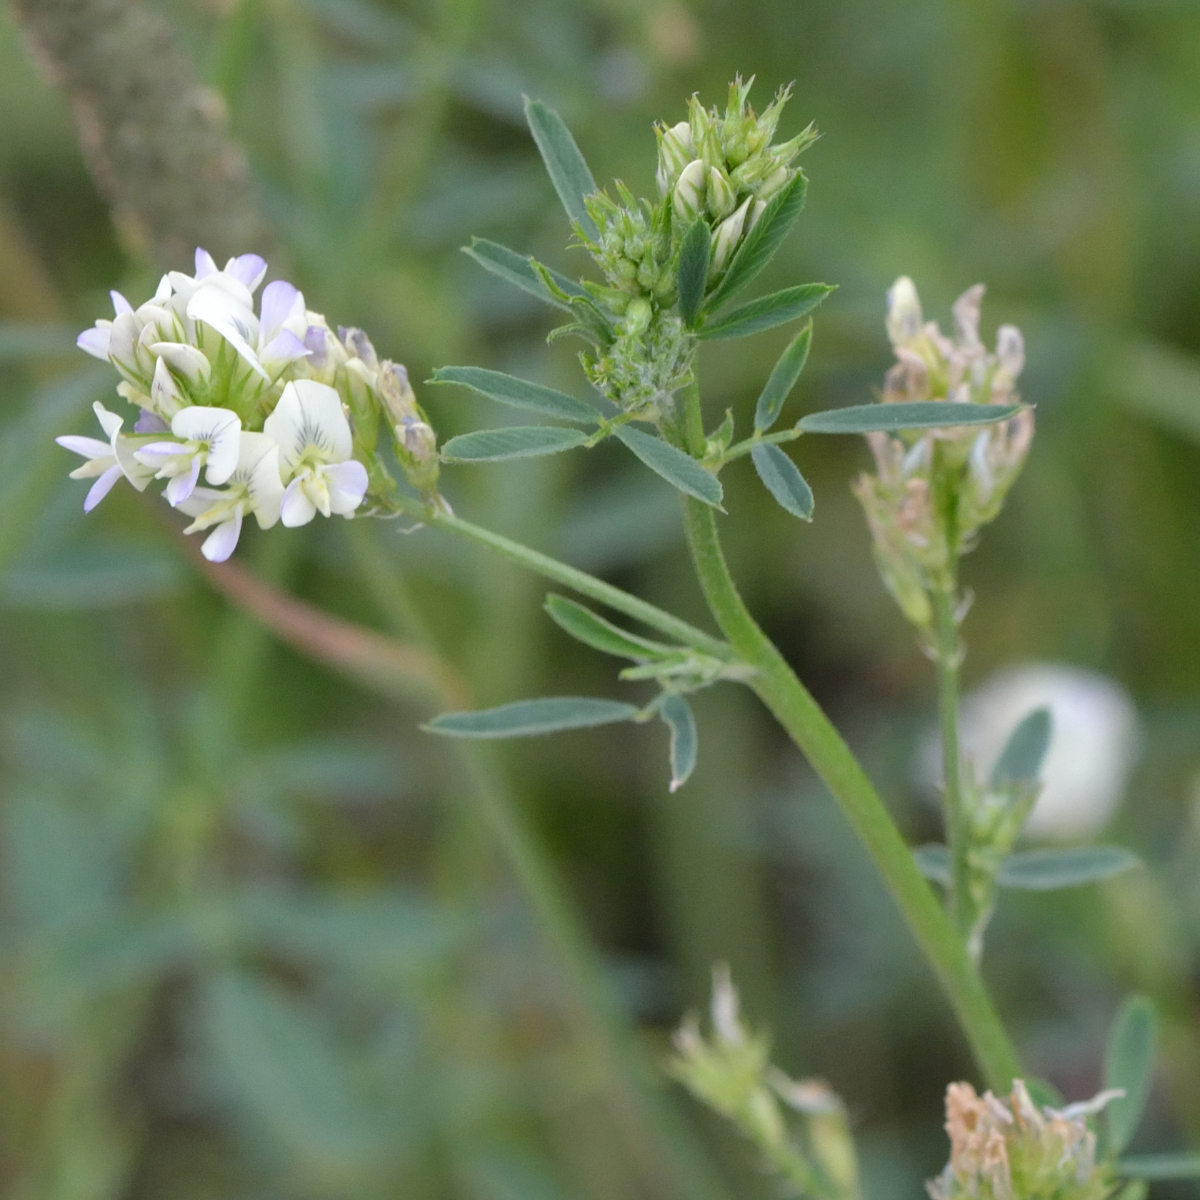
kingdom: Plantae
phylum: Tracheophyta
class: Magnoliopsida
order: Fabales
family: Fabaceae
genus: Medicago
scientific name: Medicago varia
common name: Sand lucerne
